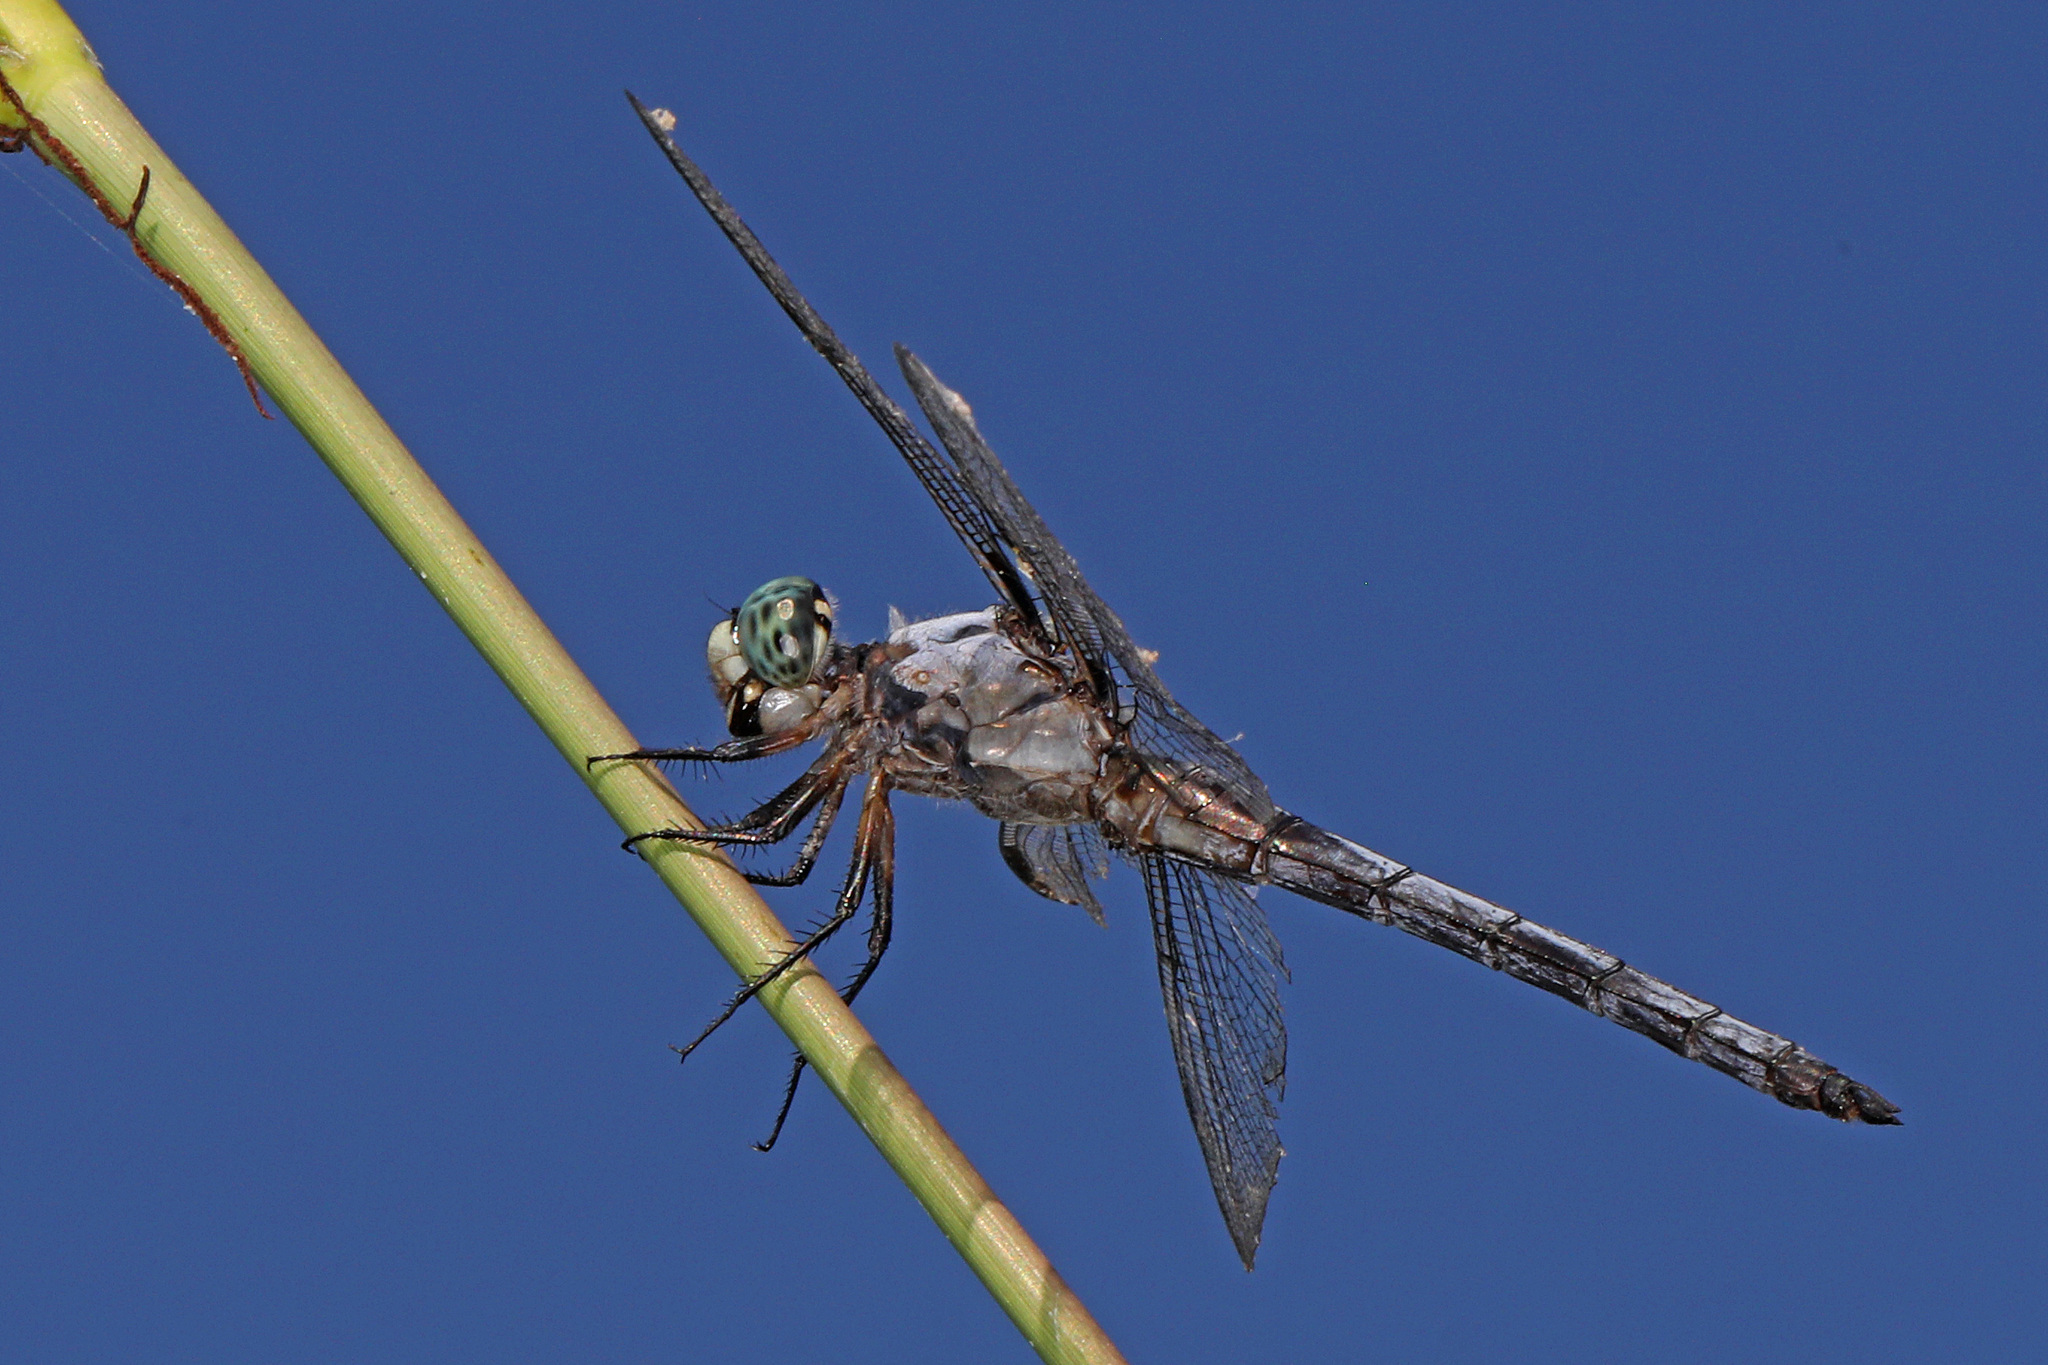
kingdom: Animalia
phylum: Arthropoda
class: Insecta
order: Odonata
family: Libellulidae
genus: Libellula
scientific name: Libellula vibrans
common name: Great blue skimmer
